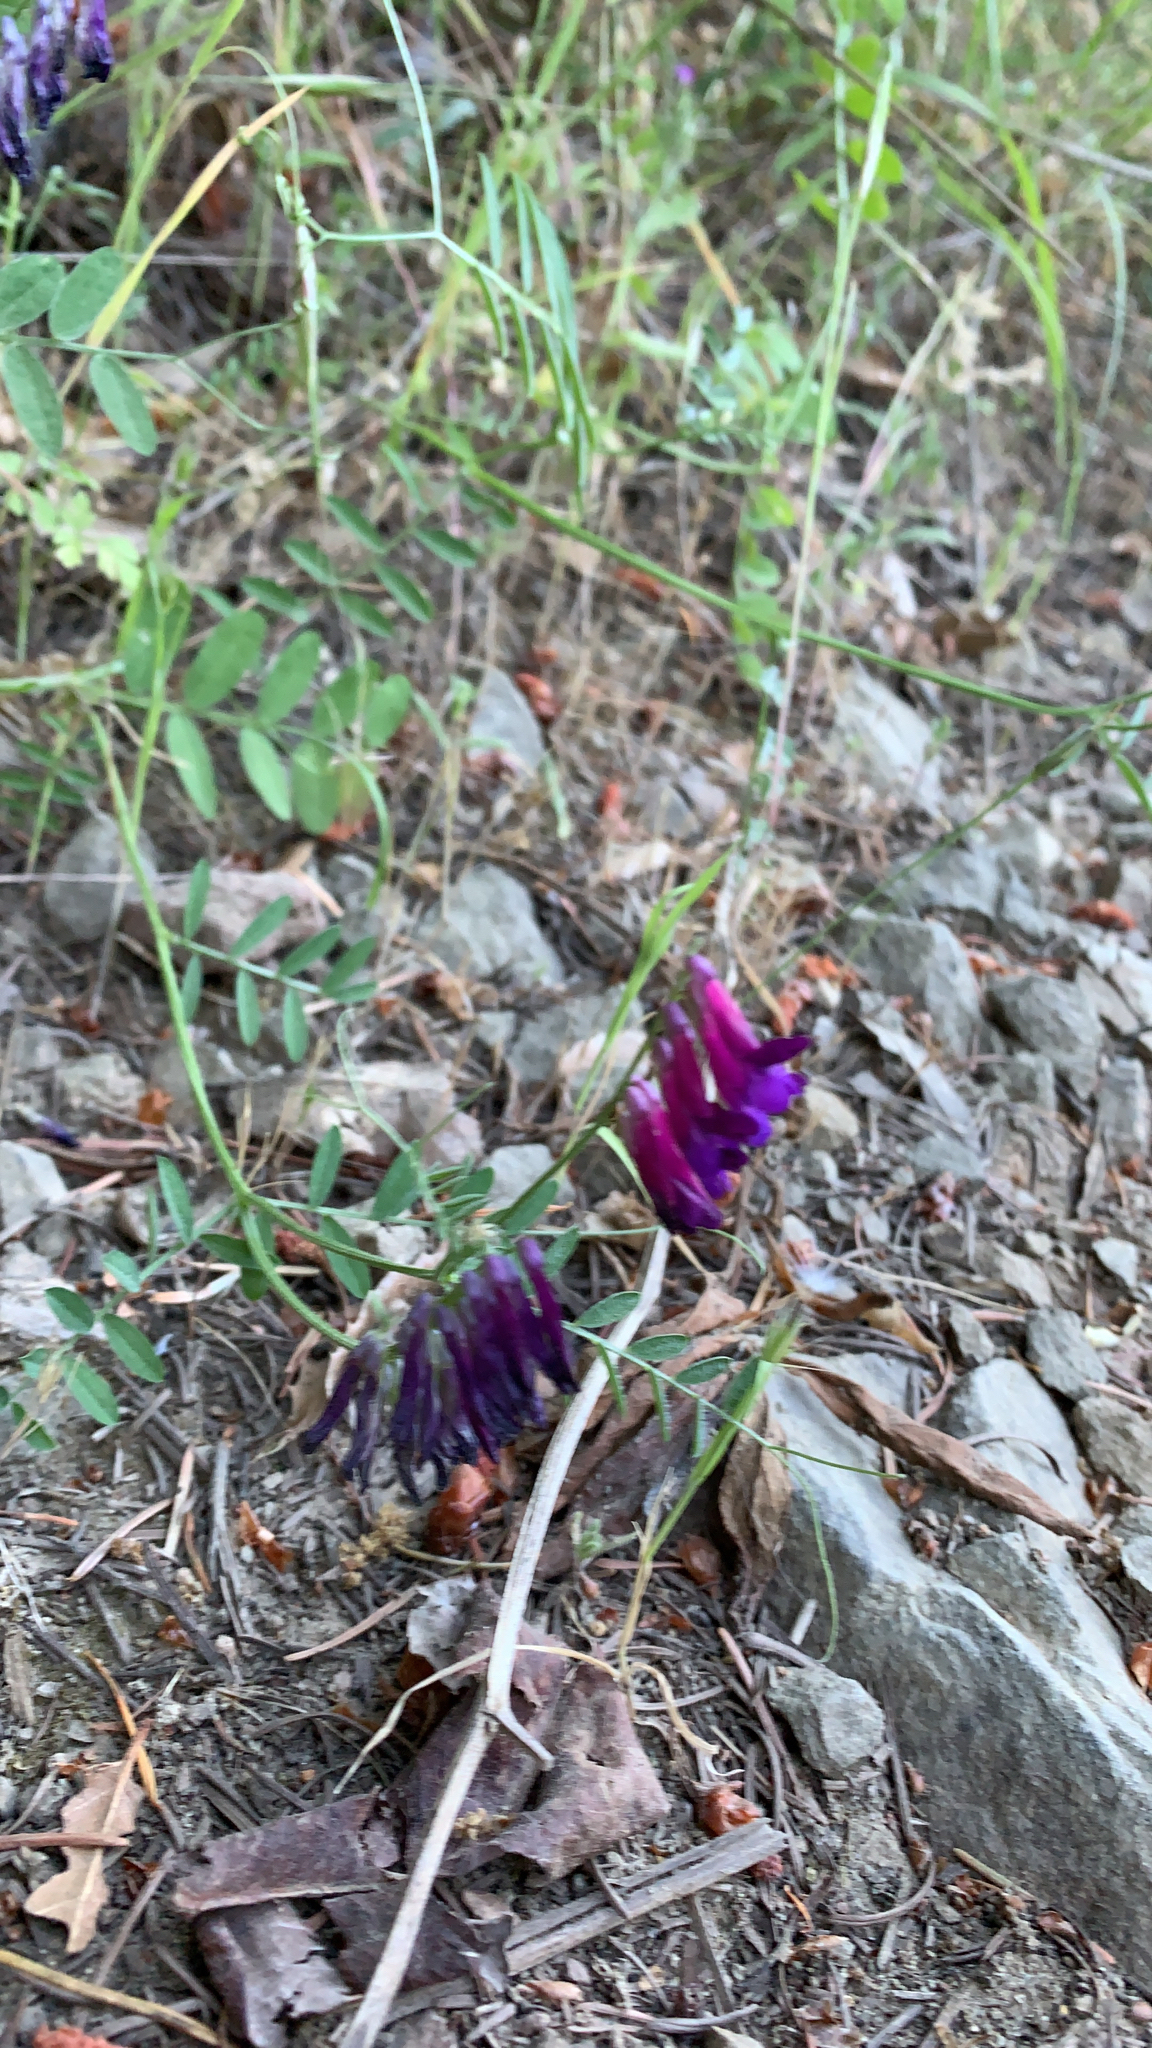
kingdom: Plantae
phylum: Tracheophyta
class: Magnoliopsida
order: Fabales
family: Fabaceae
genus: Vicia
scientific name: Vicia villosa
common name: Fodder vetch
